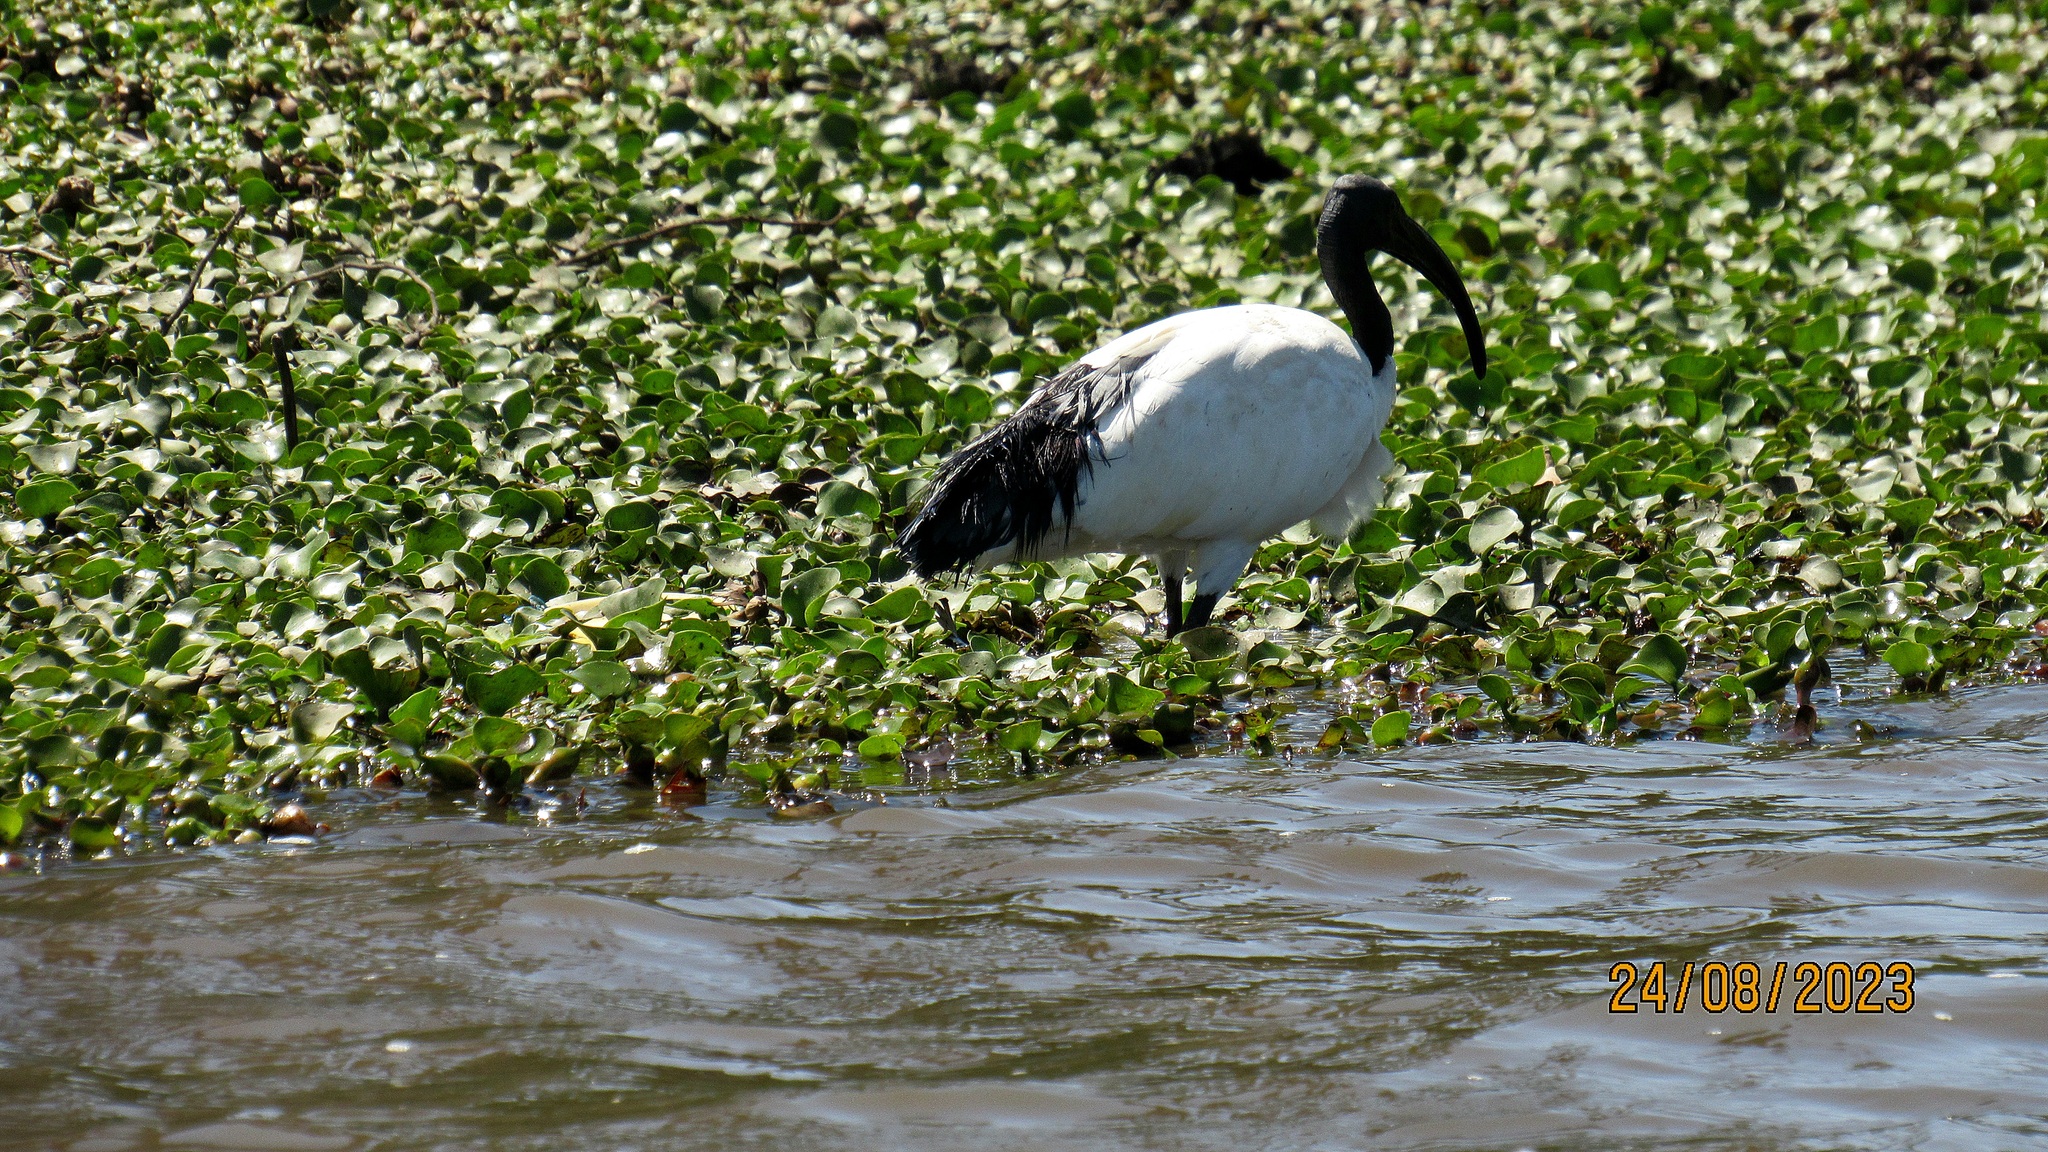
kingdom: Animalia
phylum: Chordata
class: Aves
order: Pelecaniformes
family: Threskiornithidae
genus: Threskiornis
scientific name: Threskiornis aethiopicus
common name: Sacred ibis
